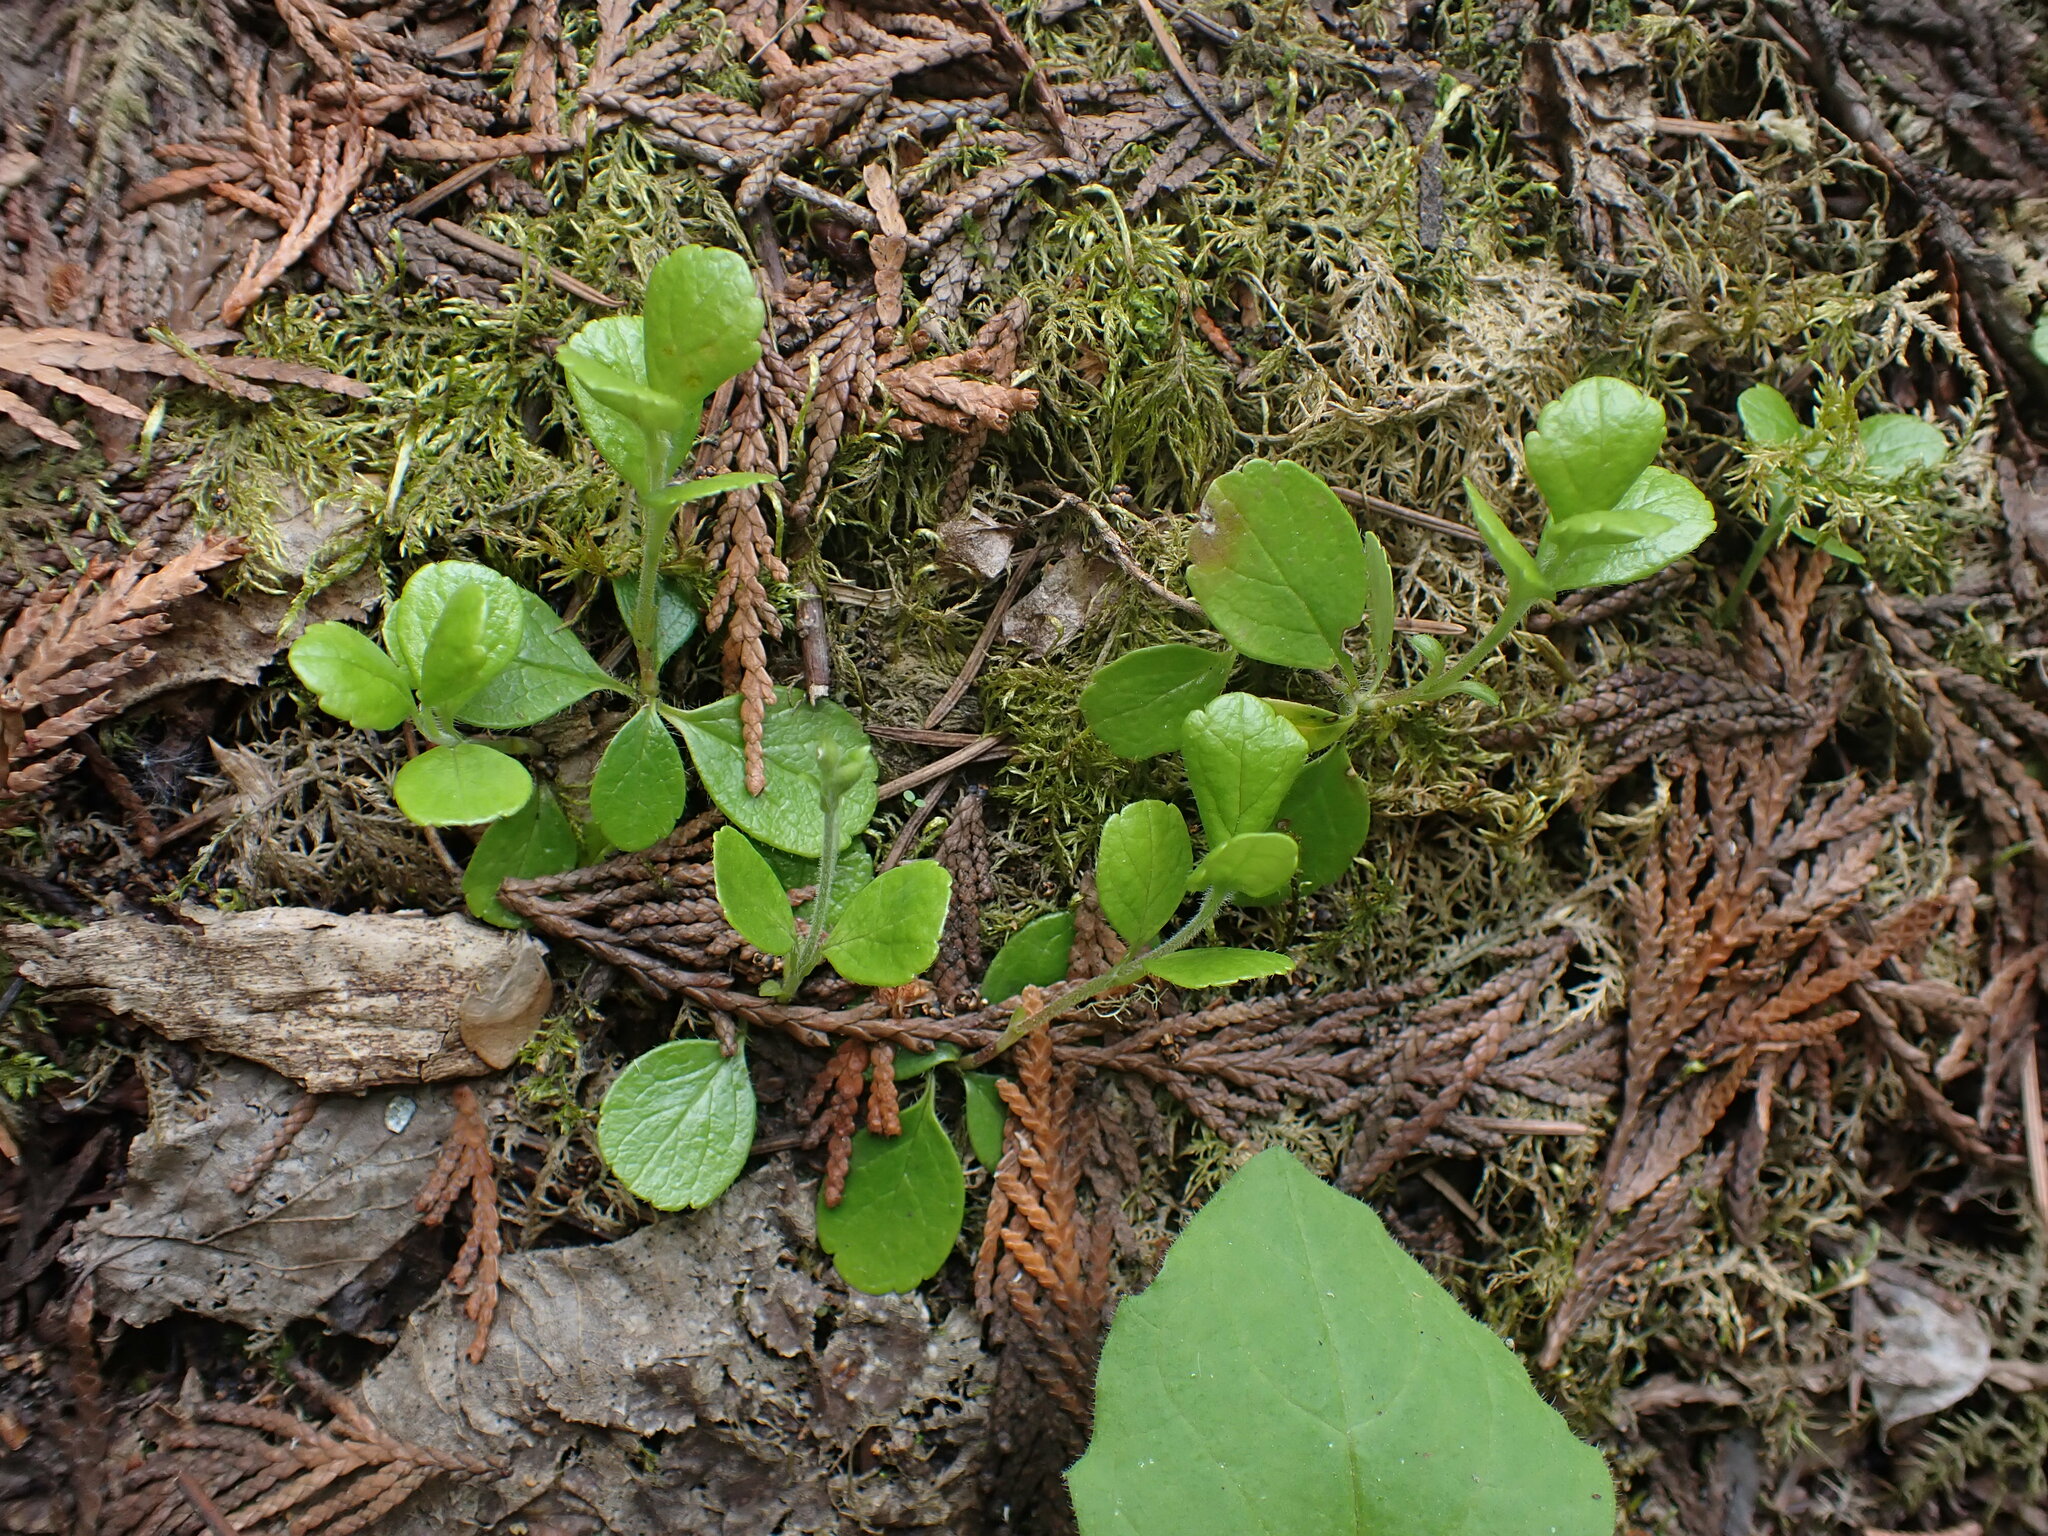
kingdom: Plantae
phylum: Tracheophyta
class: Magnoliopsida
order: Dipsacales
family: Caprifoliaceae
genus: Linnaea
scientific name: Linnaea borealis
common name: Twinflower
